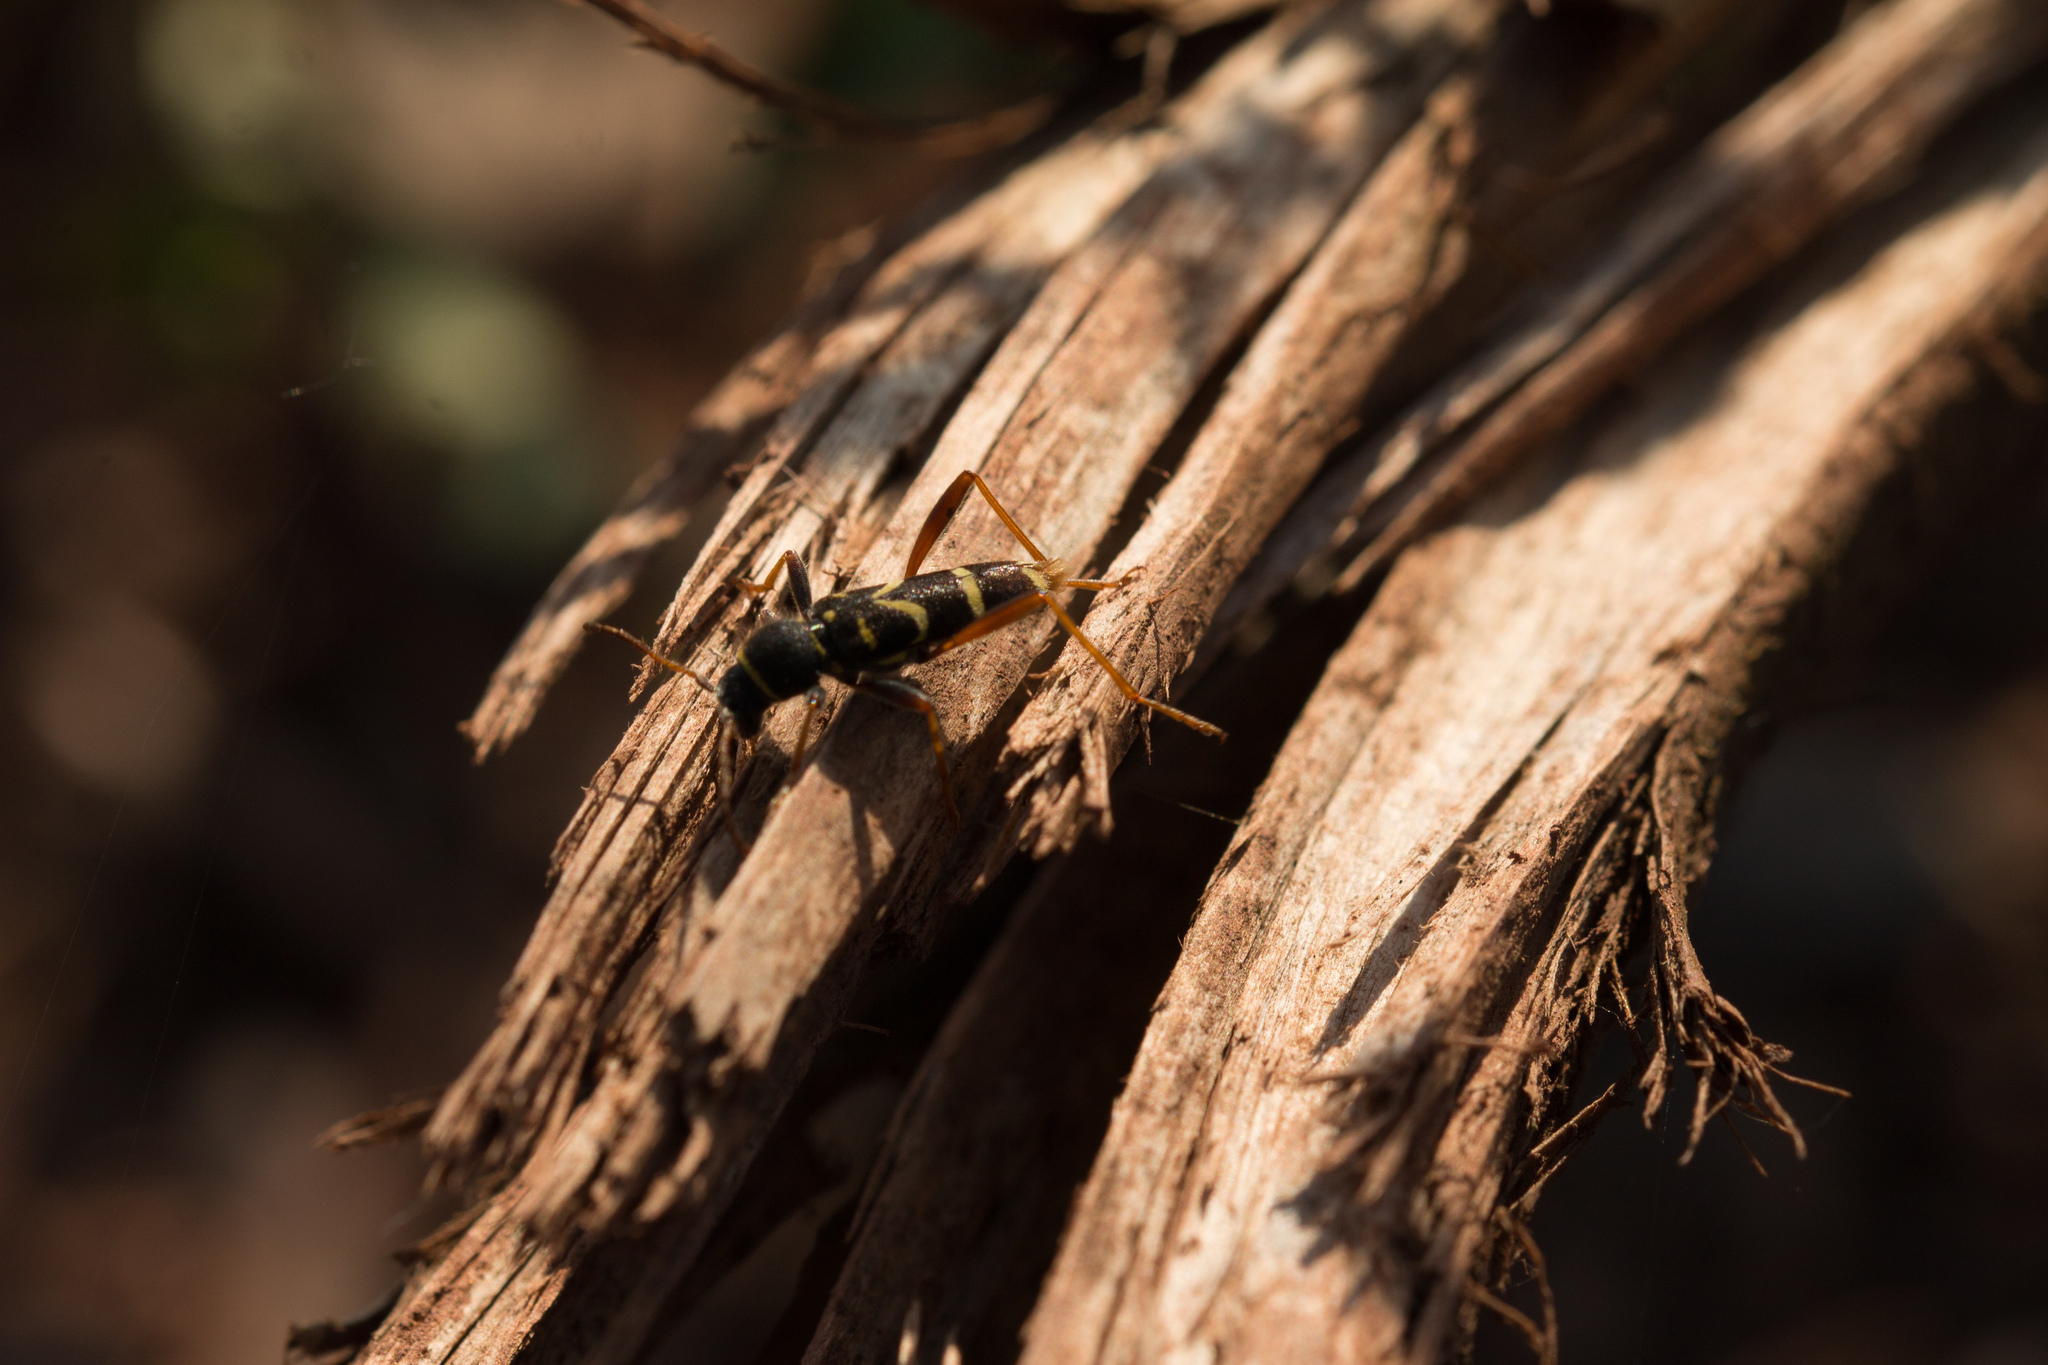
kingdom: Animalia
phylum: Arthropoda
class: Insecta
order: Coleoptera
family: Cerambycidae
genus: Clytus
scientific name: Clytus arietis
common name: Wasp beetle
